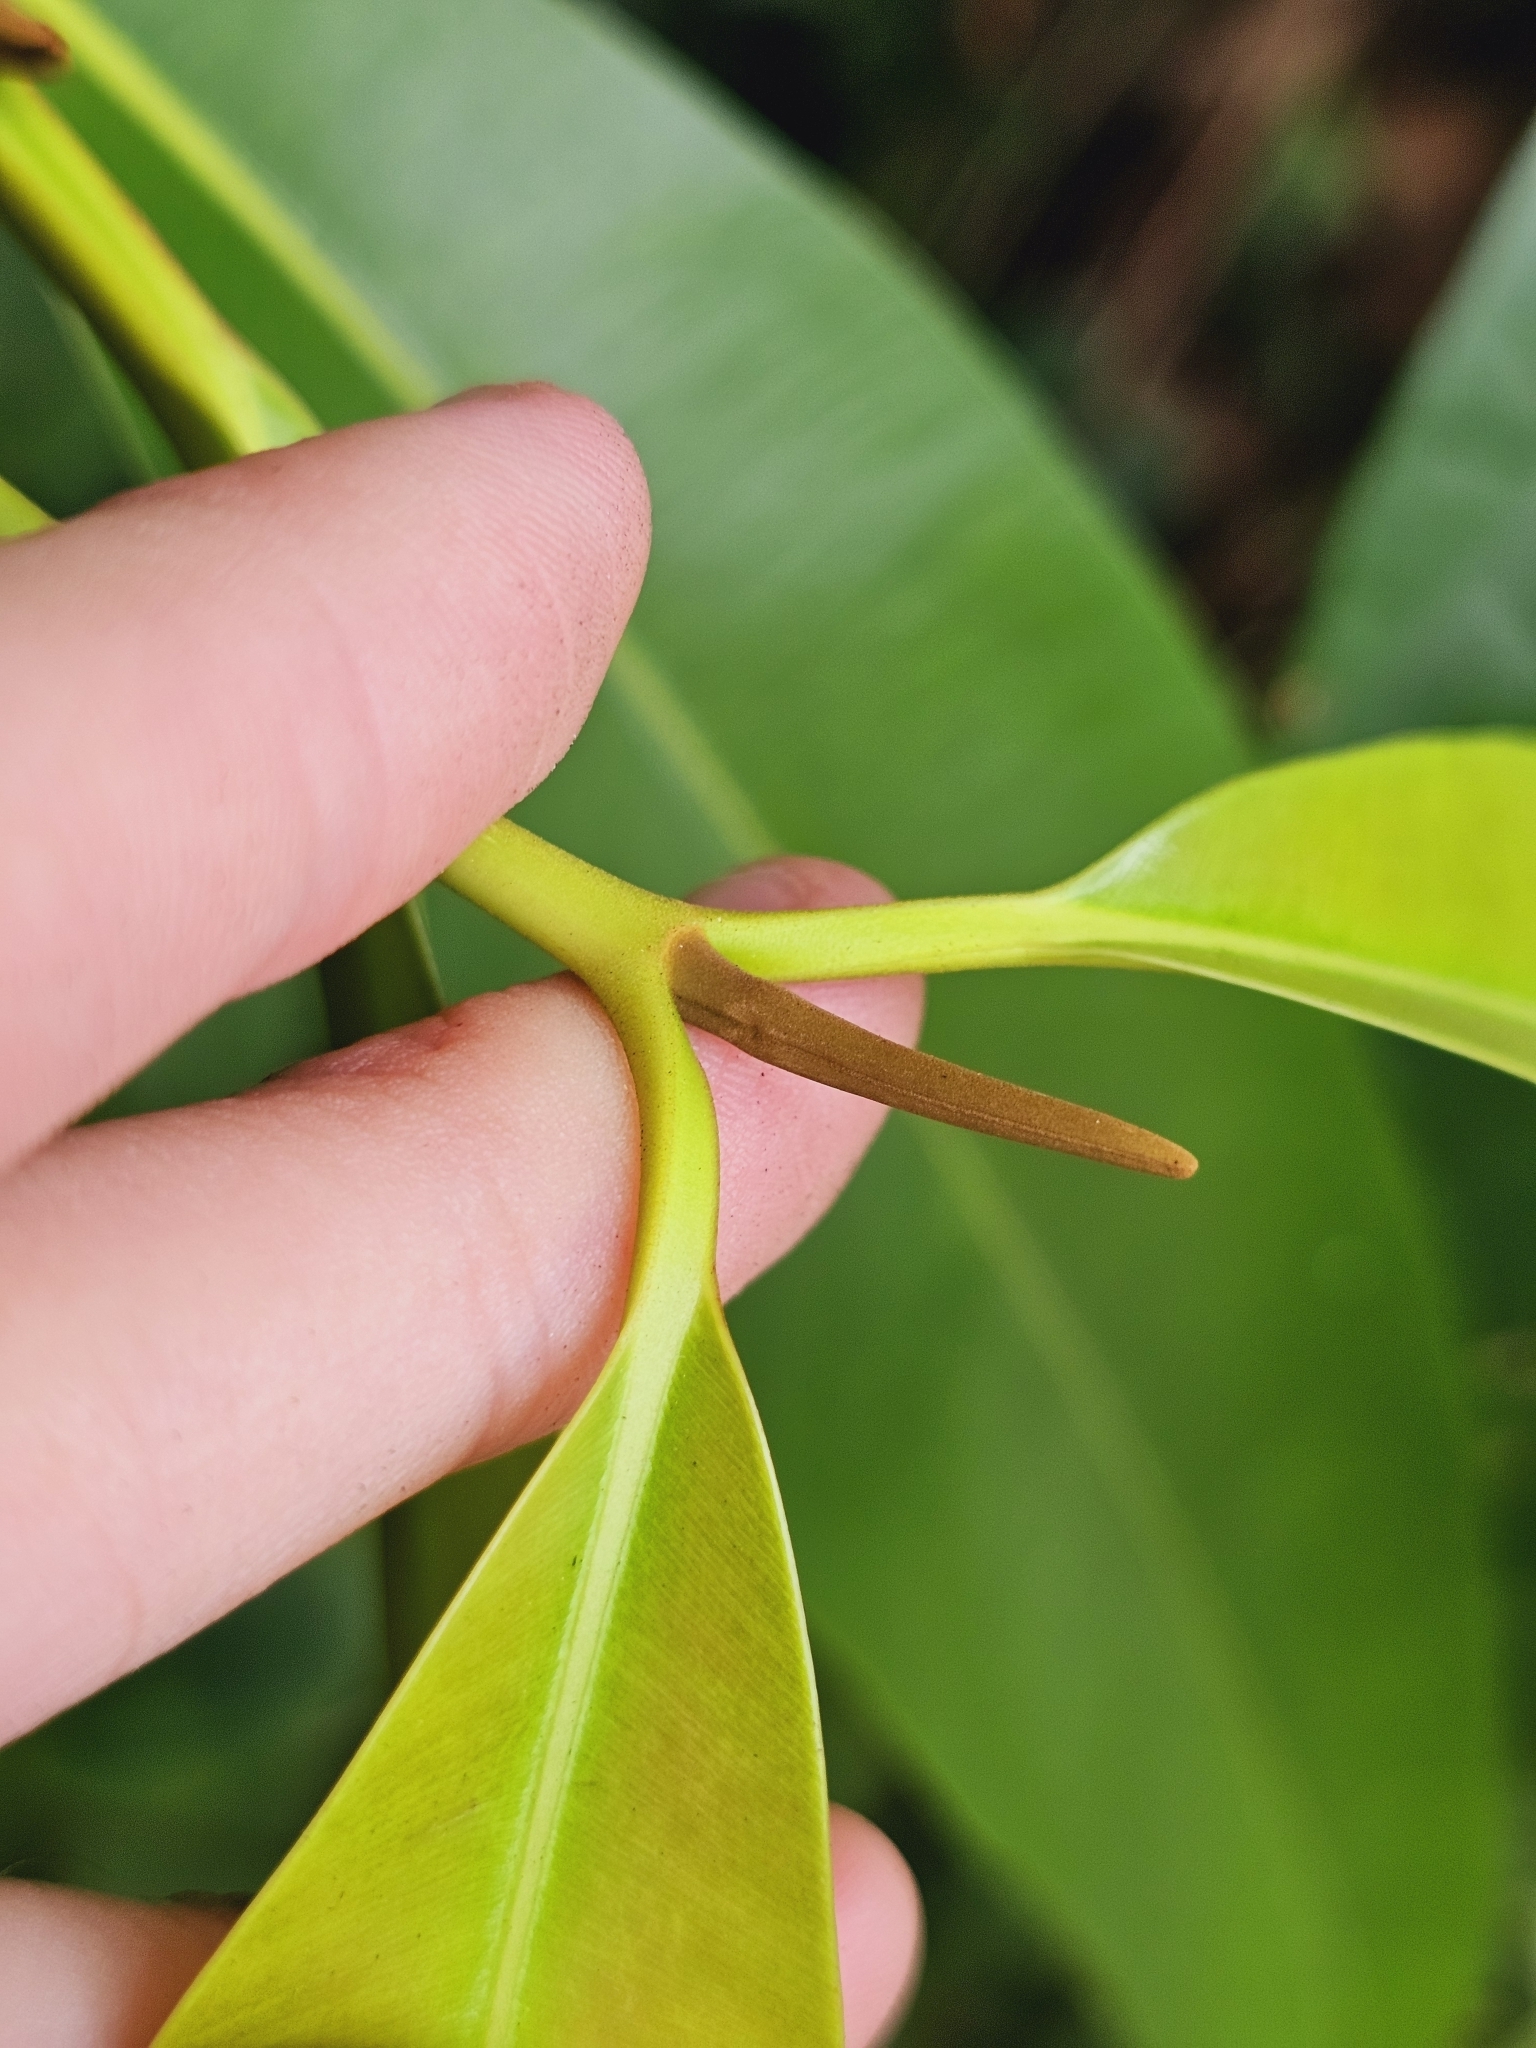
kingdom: Plantae
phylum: Tracheophyta
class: Magnoliopsida
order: Malpighiales
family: Calophyllaceae
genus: Calophyllum
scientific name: Calophyllum wallichiana
